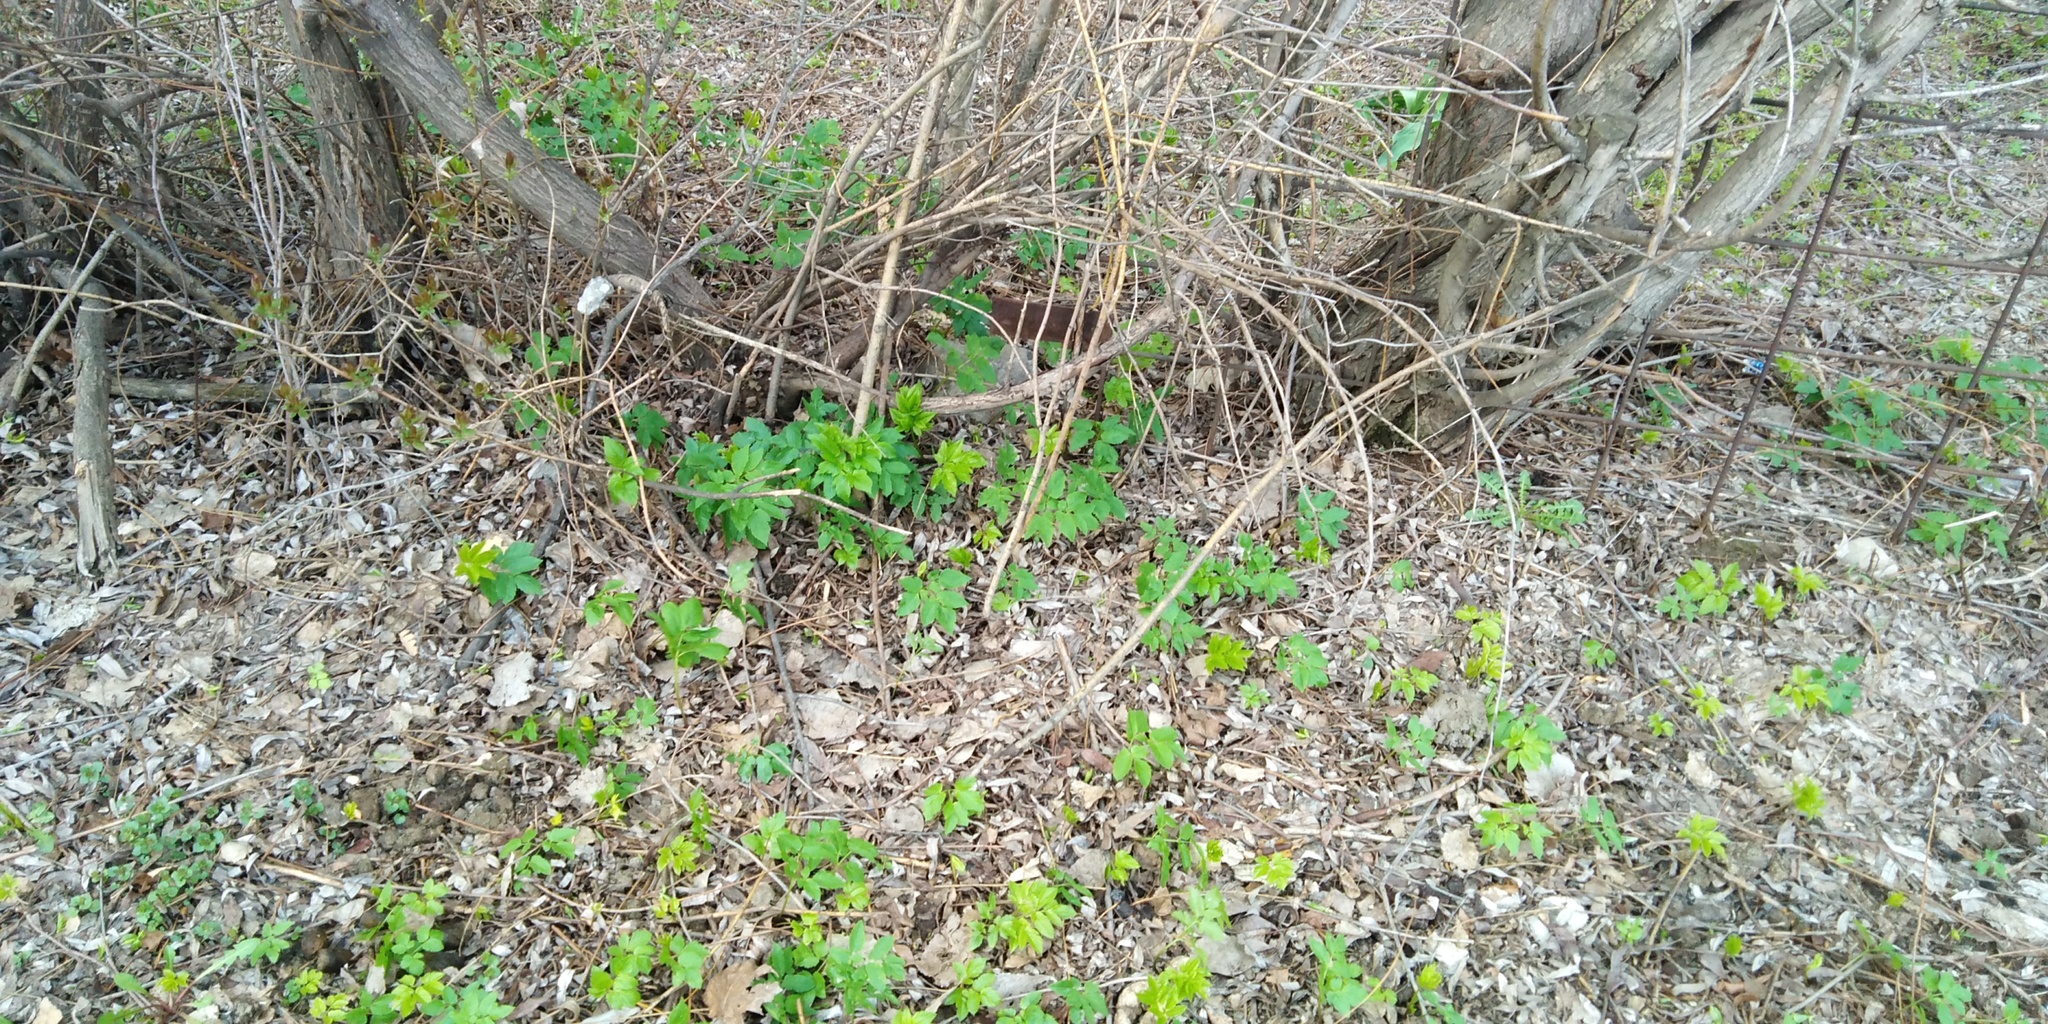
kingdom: Plantae
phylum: Tracheophyta
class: Magnoliopsida
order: Apiales
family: Apiaceae
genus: Aegopodium
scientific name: Aegopodium podagraria
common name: Ground-elder
